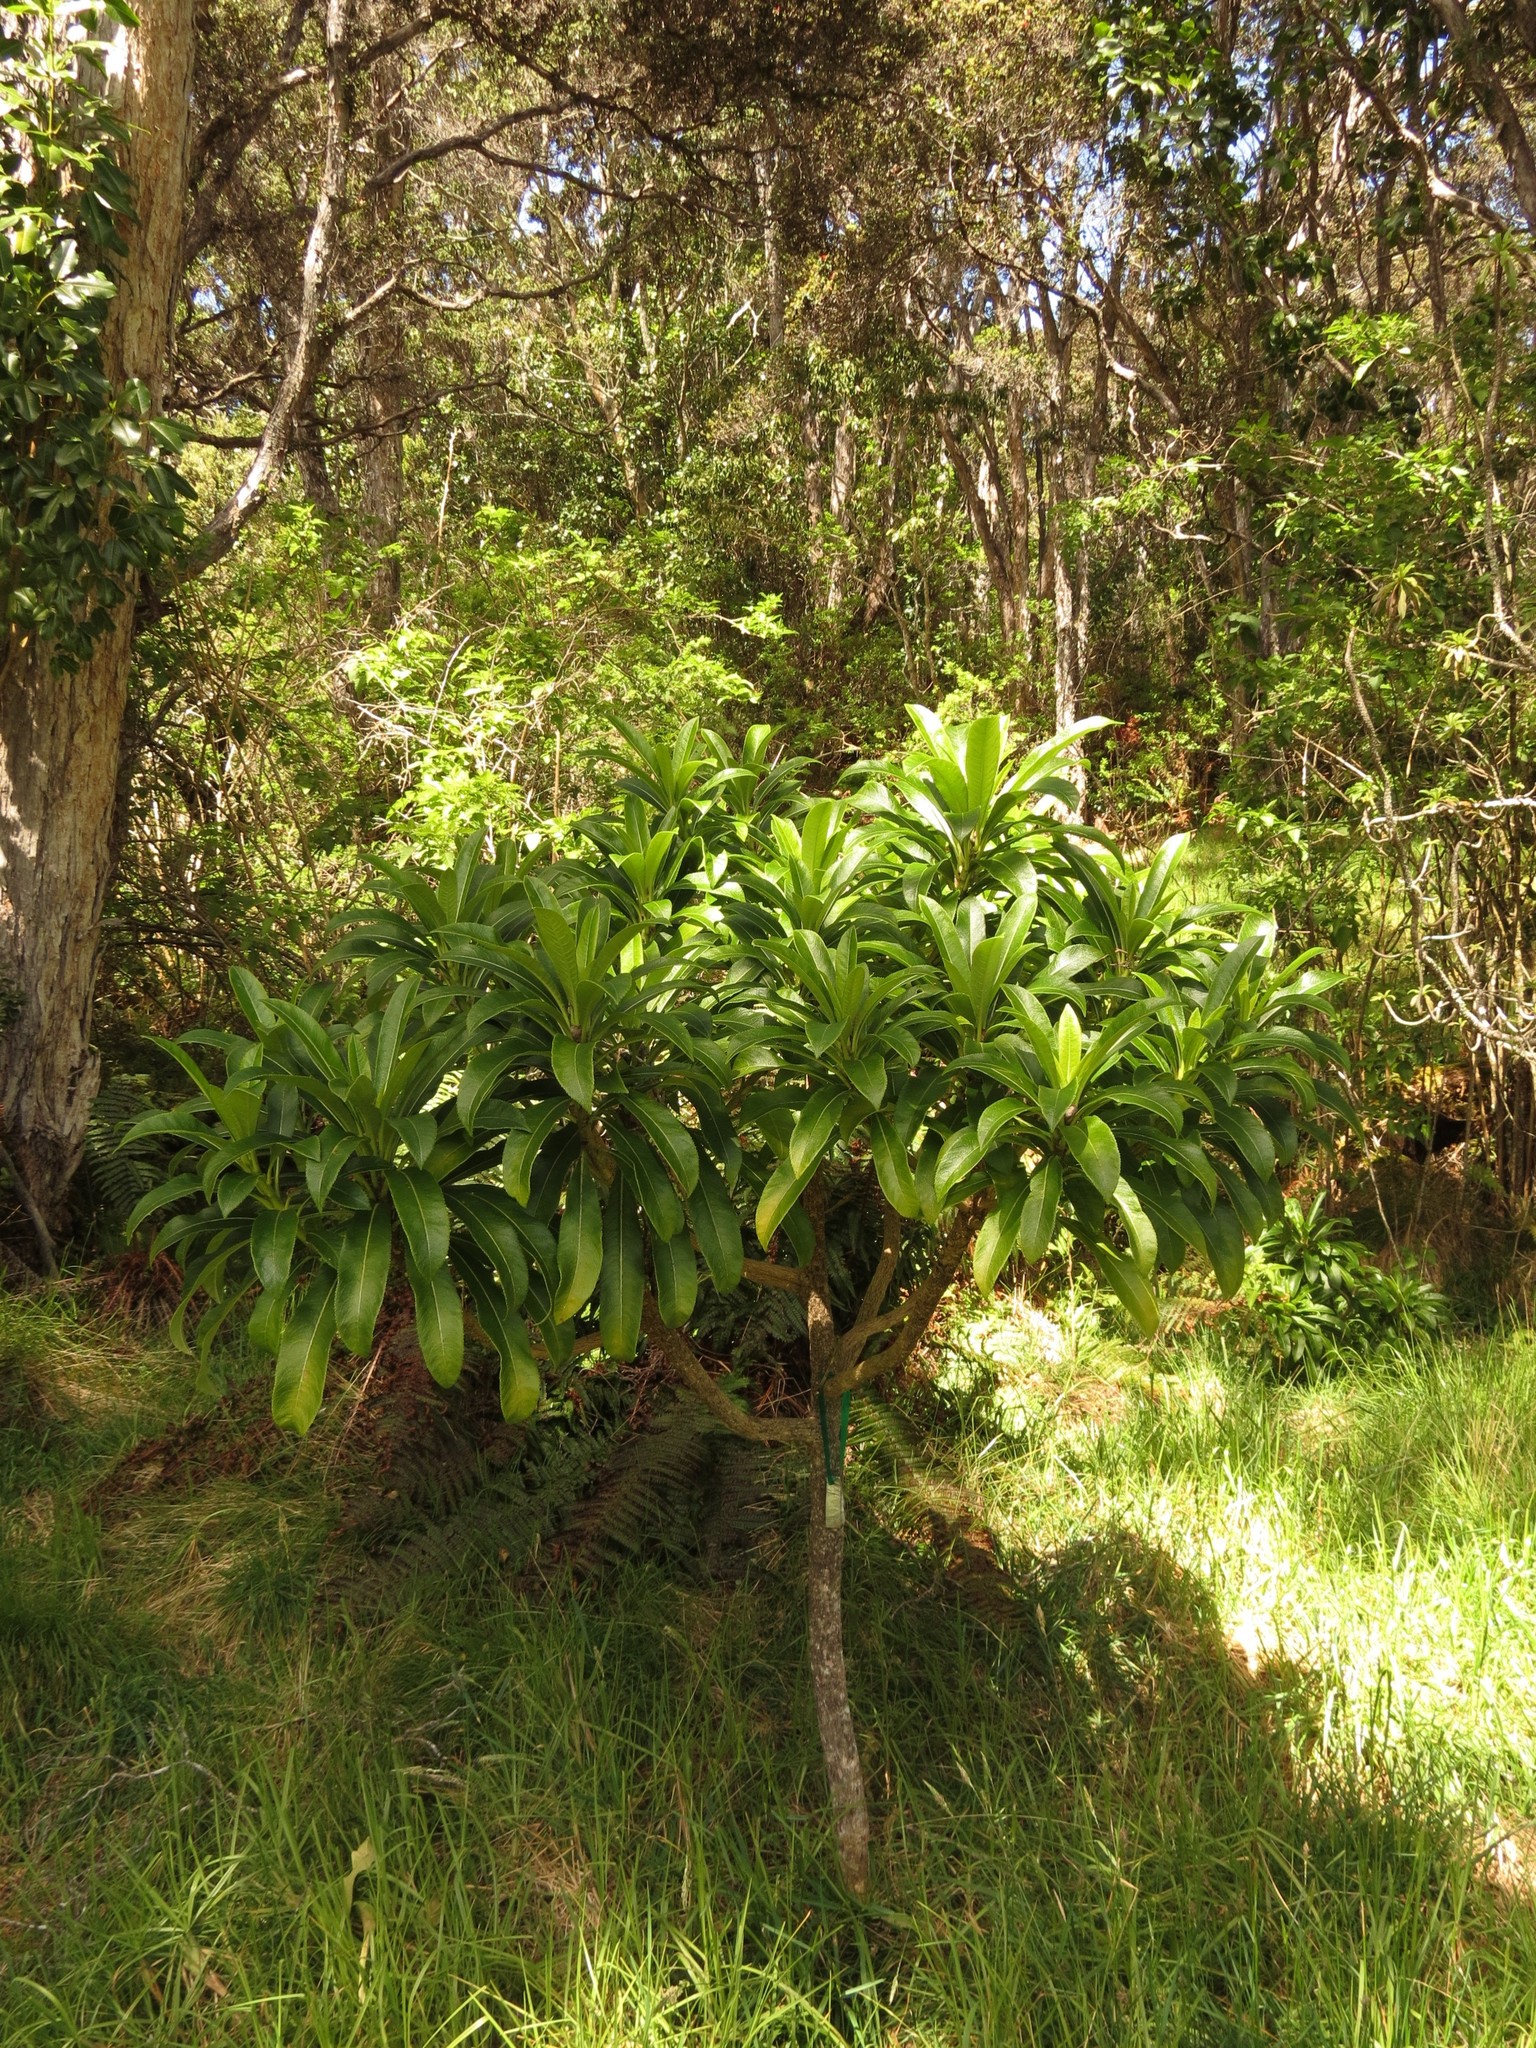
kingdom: Plantae
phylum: Tracheophyta
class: Magnoliopsida
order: Asterales
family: Campanulaceae
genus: Clermontia
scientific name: Clermontia lindseyana
